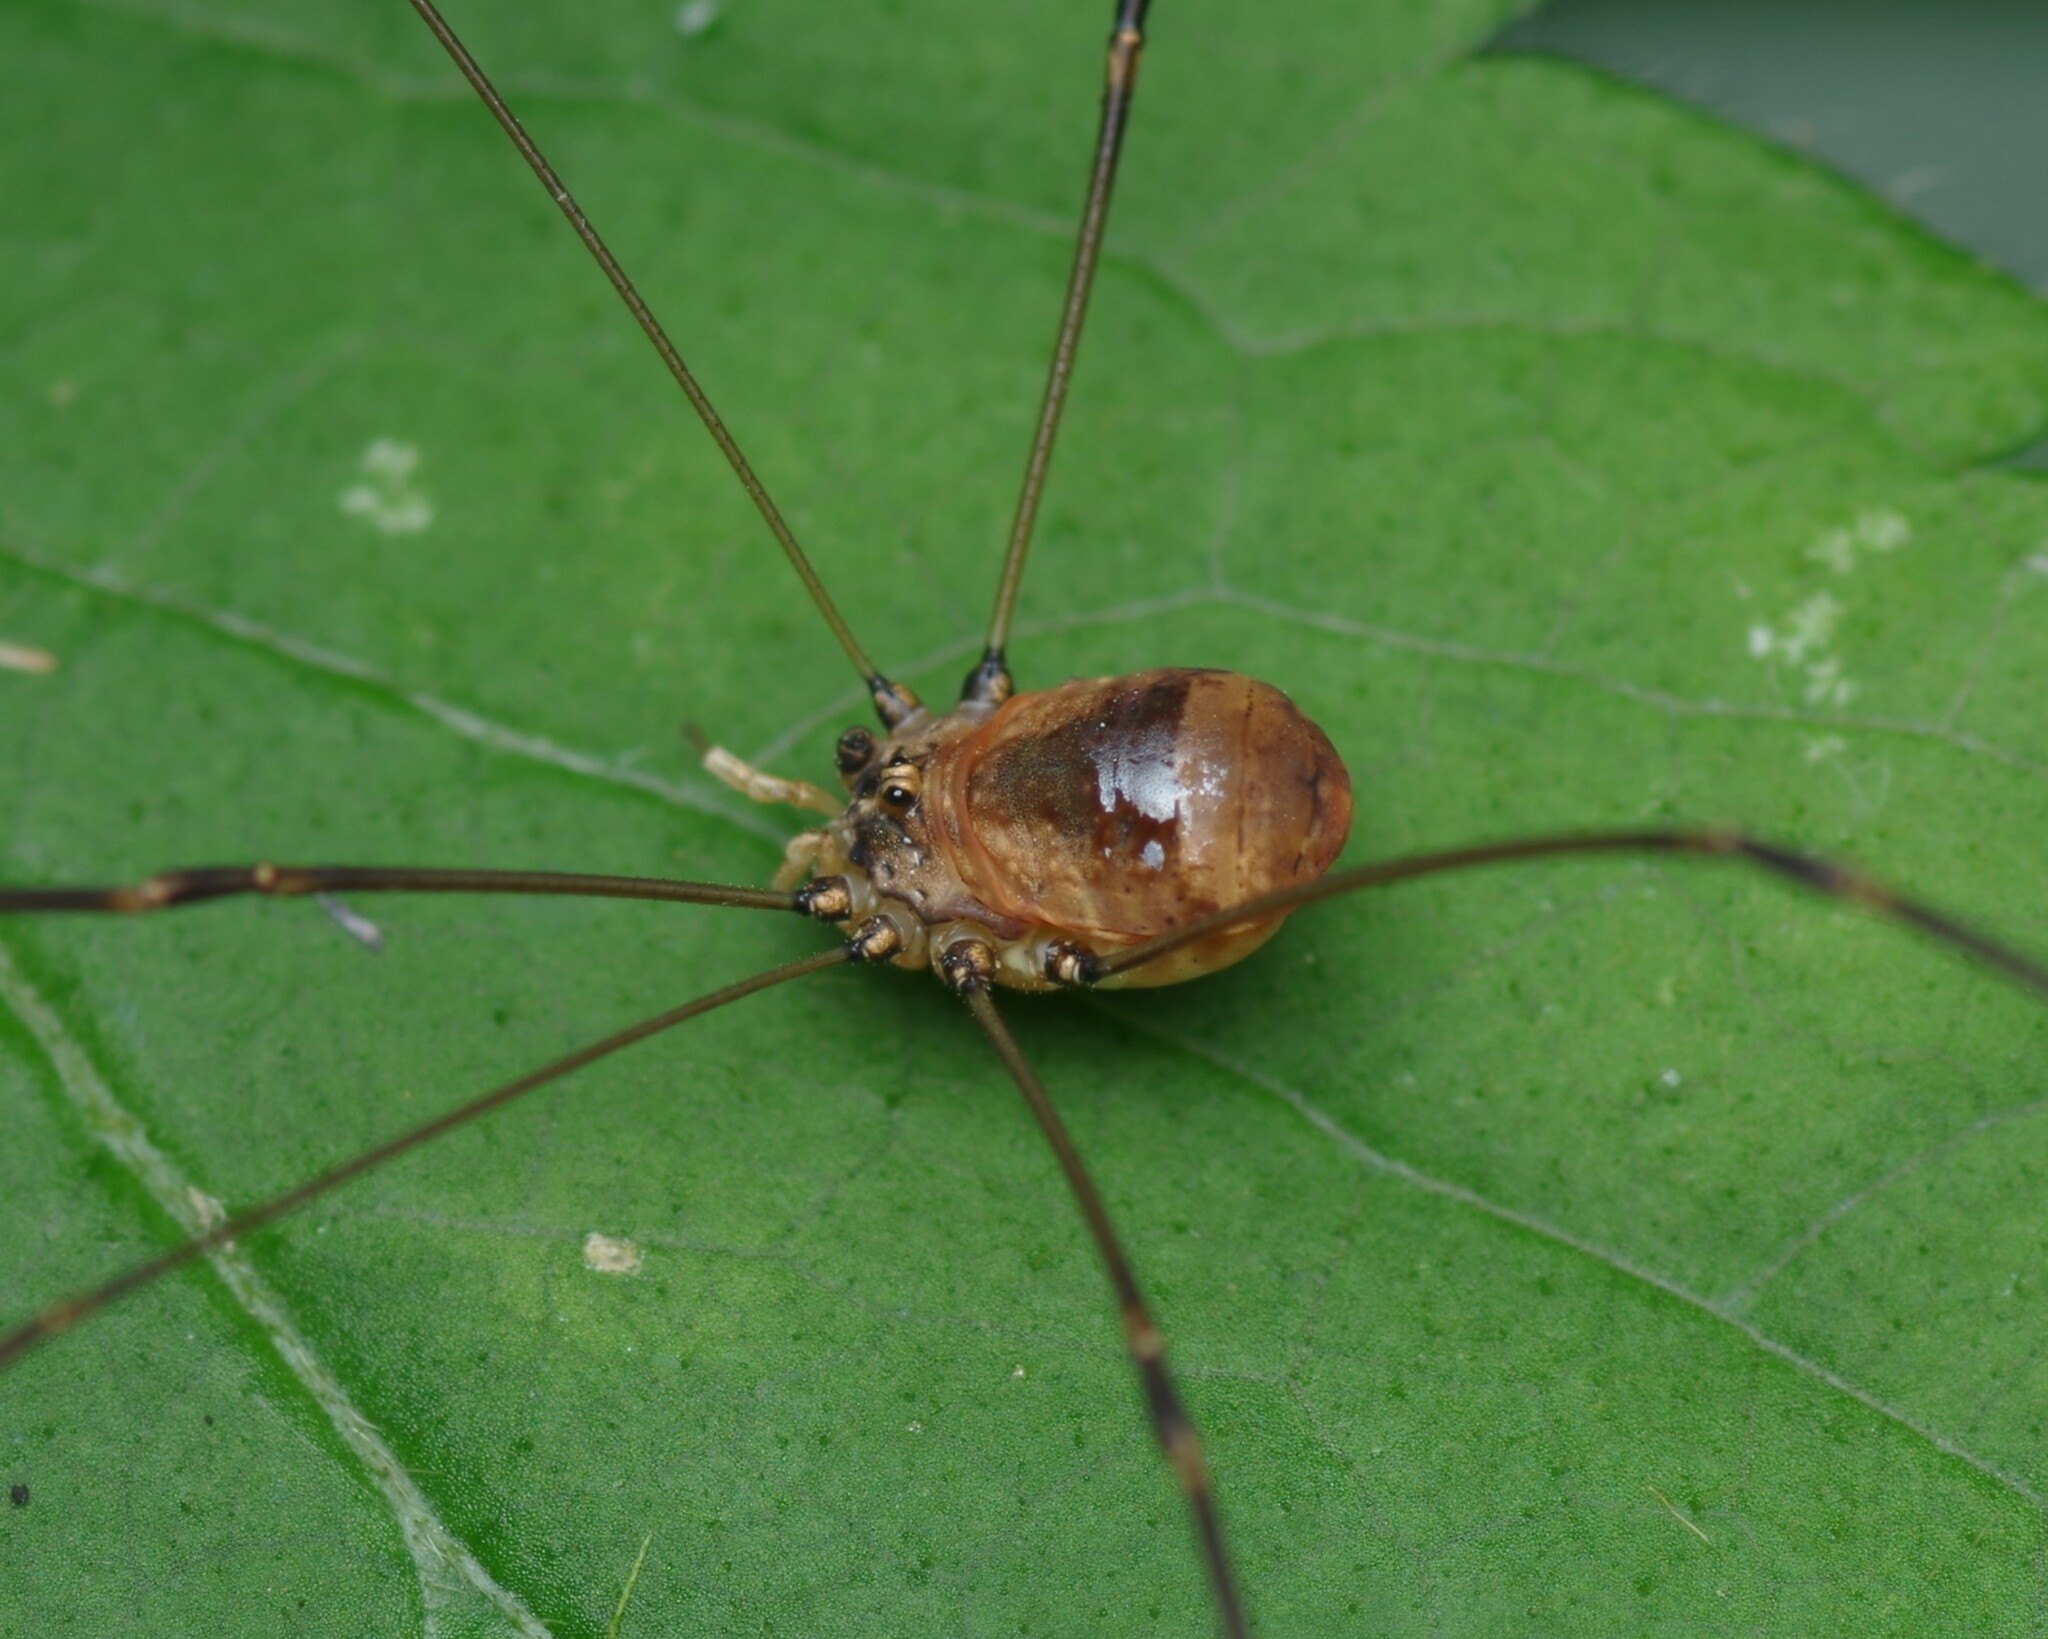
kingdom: Animalia
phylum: Arthropoda
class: Arachnida
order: Opiliones
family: Sclerosomatidae
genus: Leiobunum
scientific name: Leiobunum blackwalli
